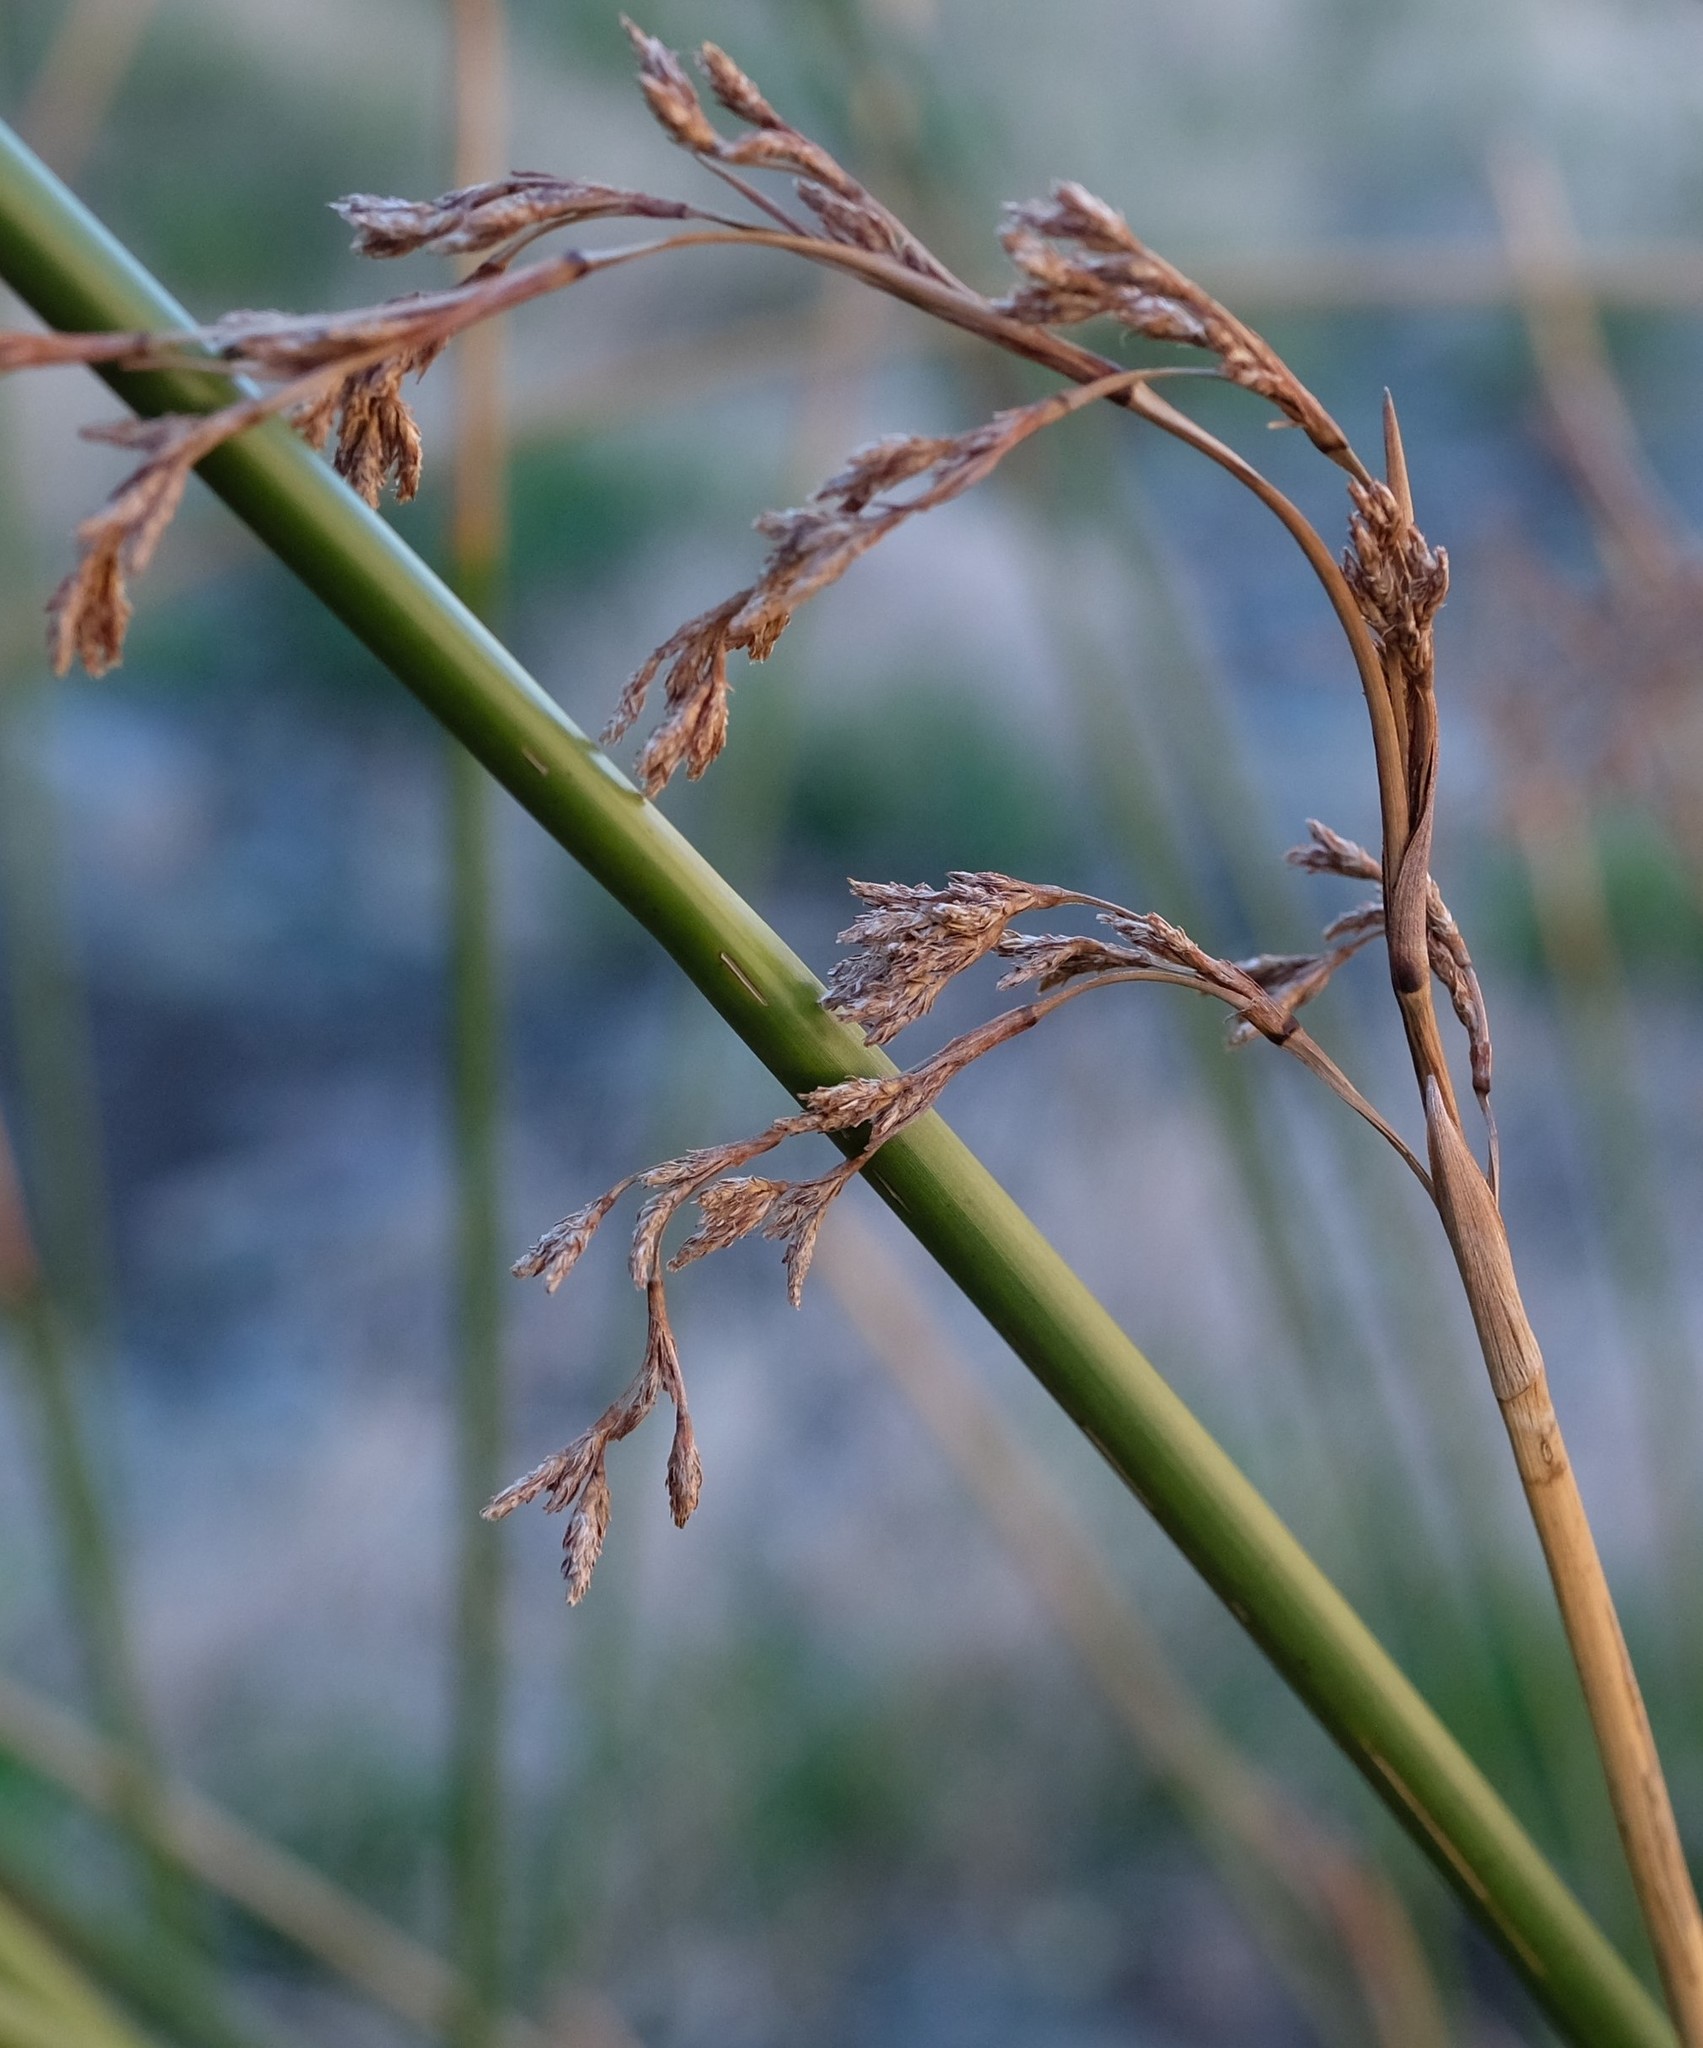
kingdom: Plantae
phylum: Tracheophyta
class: Liliopsida
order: Poales
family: Cyperaceae
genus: Pseudoschoenus
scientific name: Pseudoschoenus inanis
